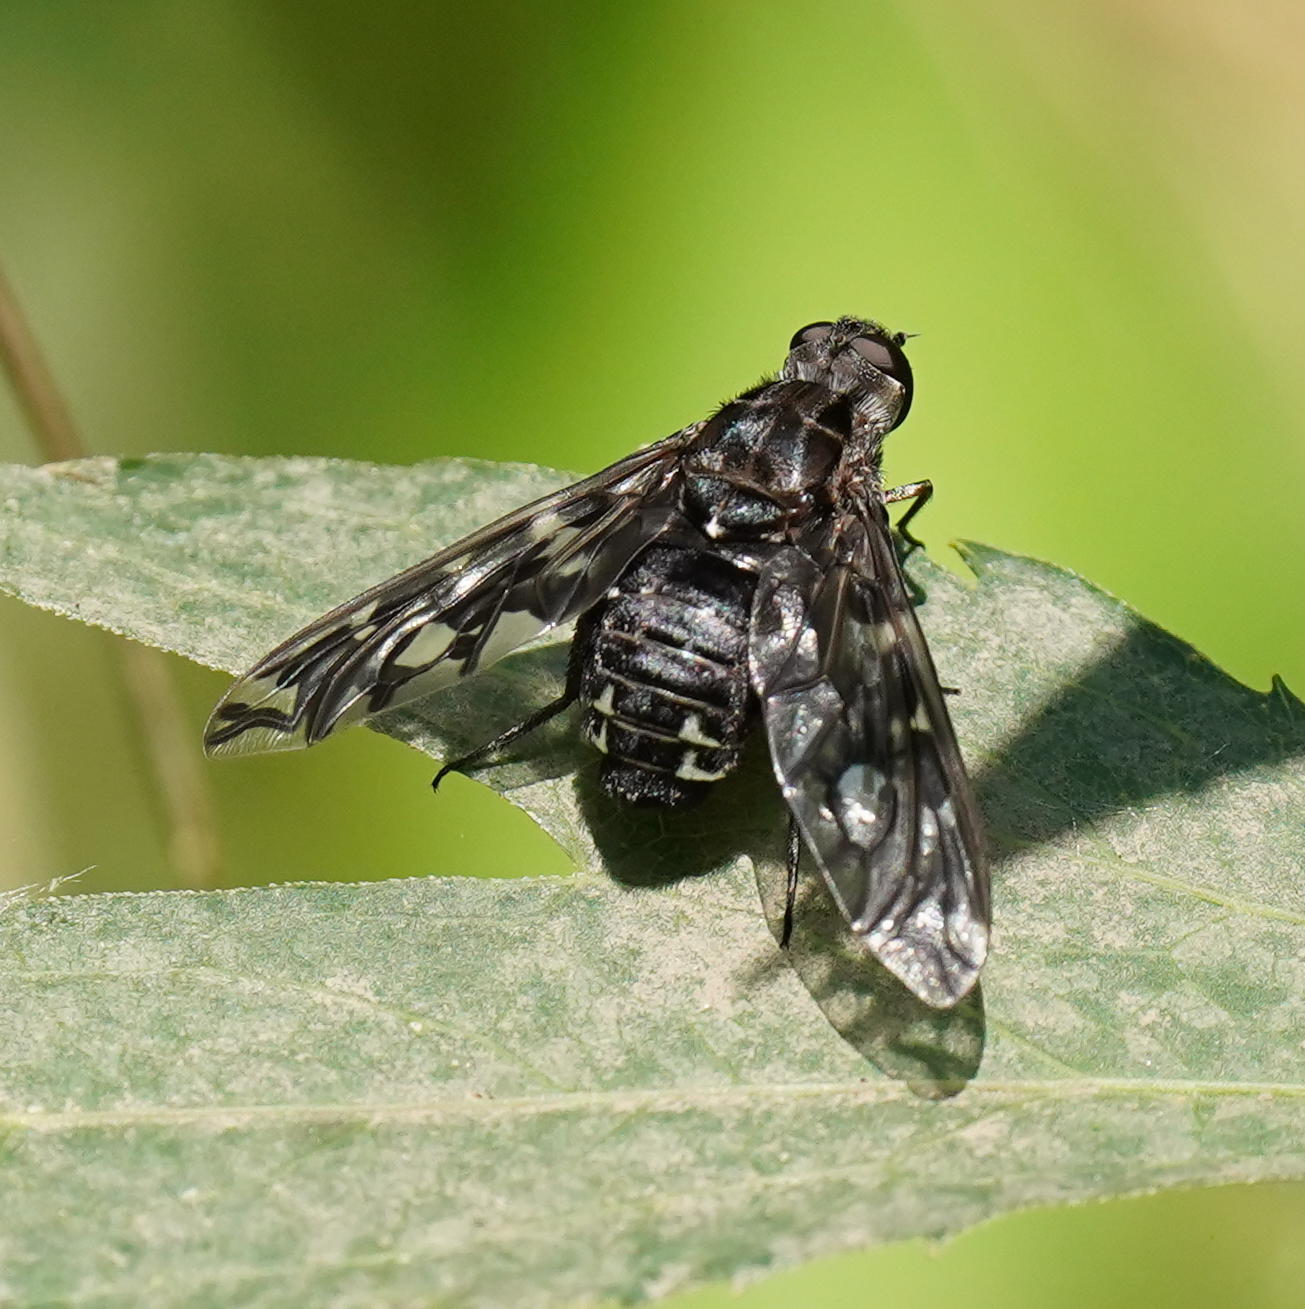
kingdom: Animalia
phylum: Arthropoda
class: Insecta
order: Diptera
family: Bombyliidae
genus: Xenox
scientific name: Xenox tigrinus
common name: Tiger bee fly
